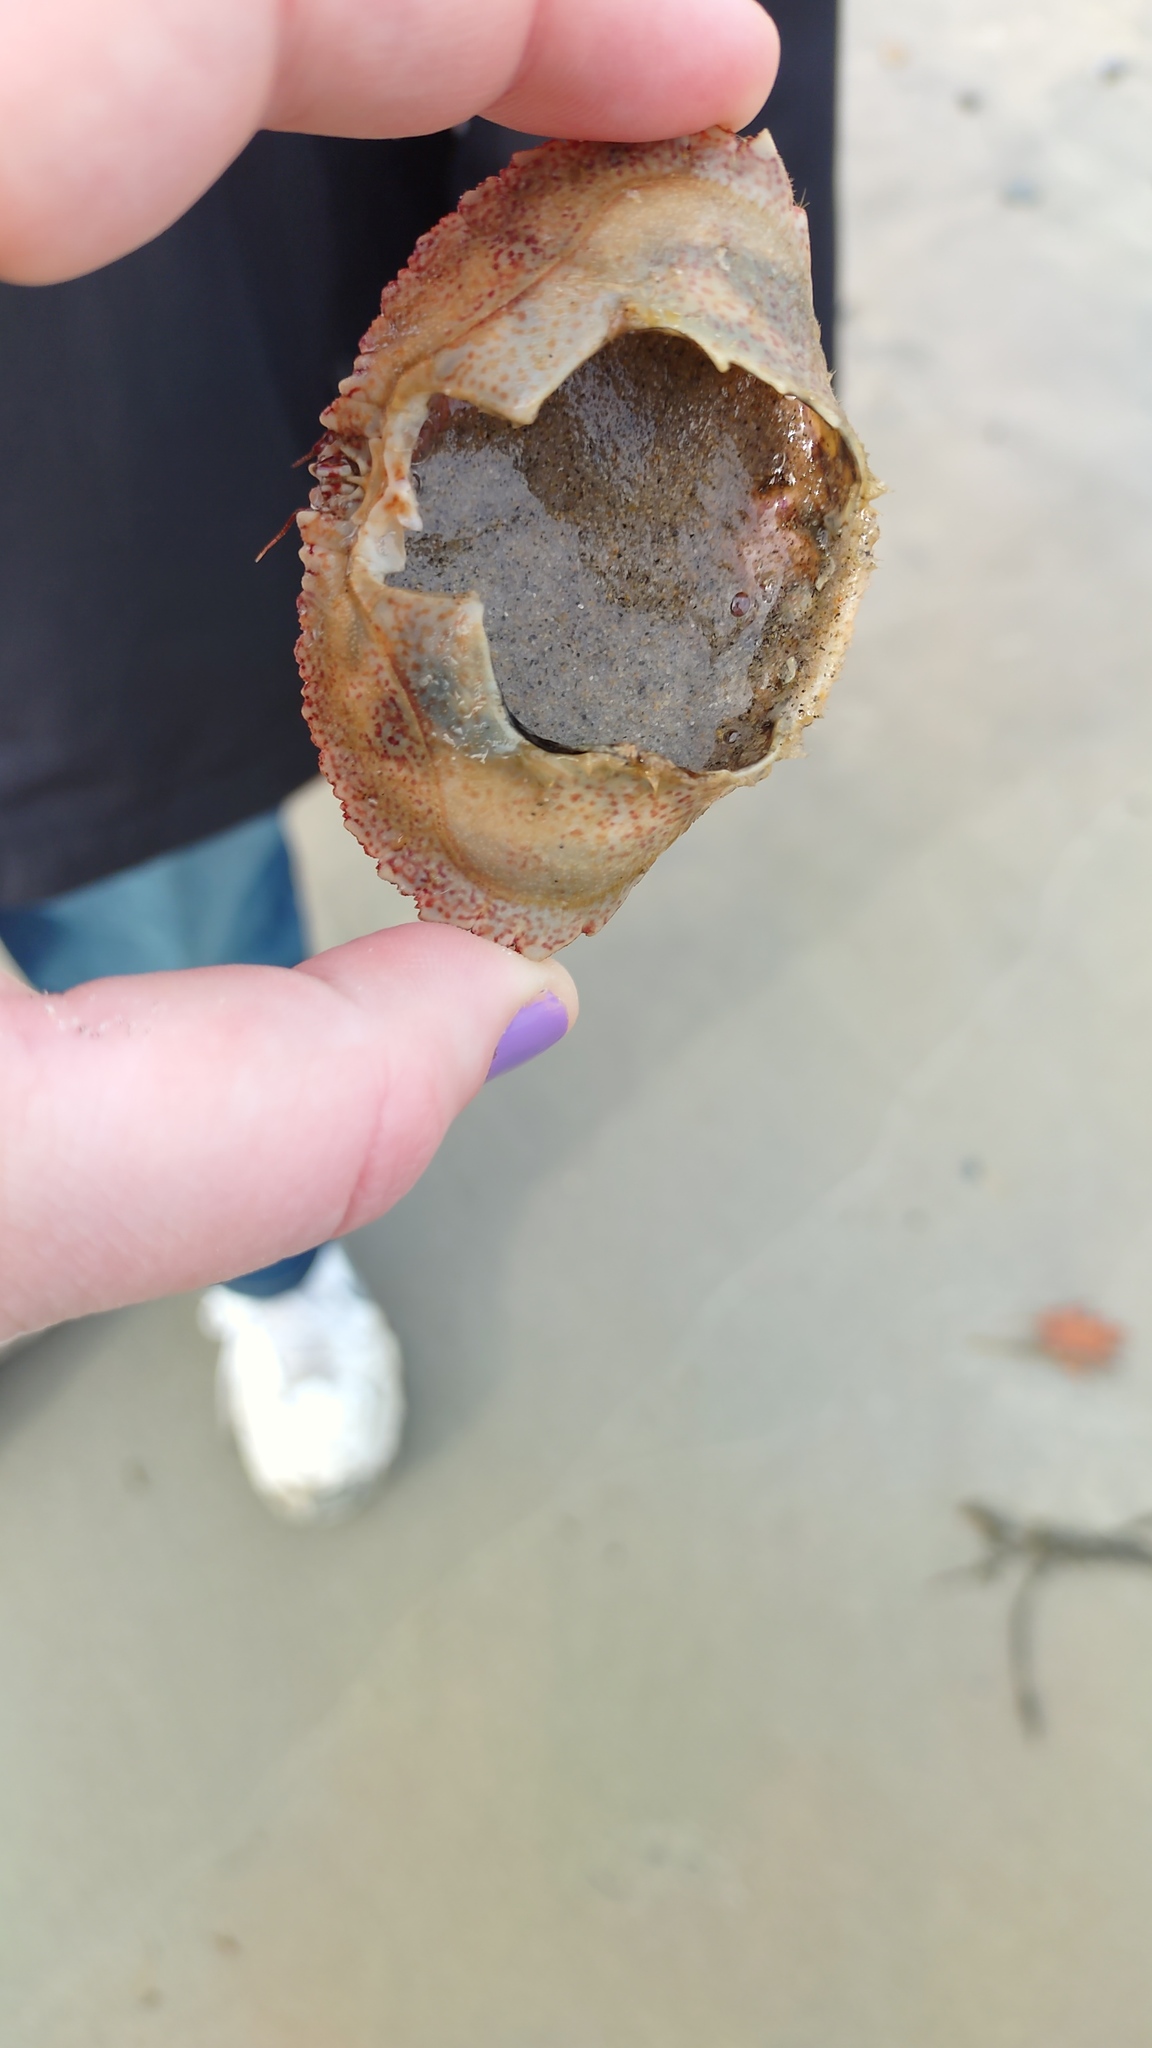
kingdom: Animalia
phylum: Arthropoda
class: Malacostraca
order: Decapoda
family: Cancridae
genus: Cancer
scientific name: Cancer borealis
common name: Jonah crab
